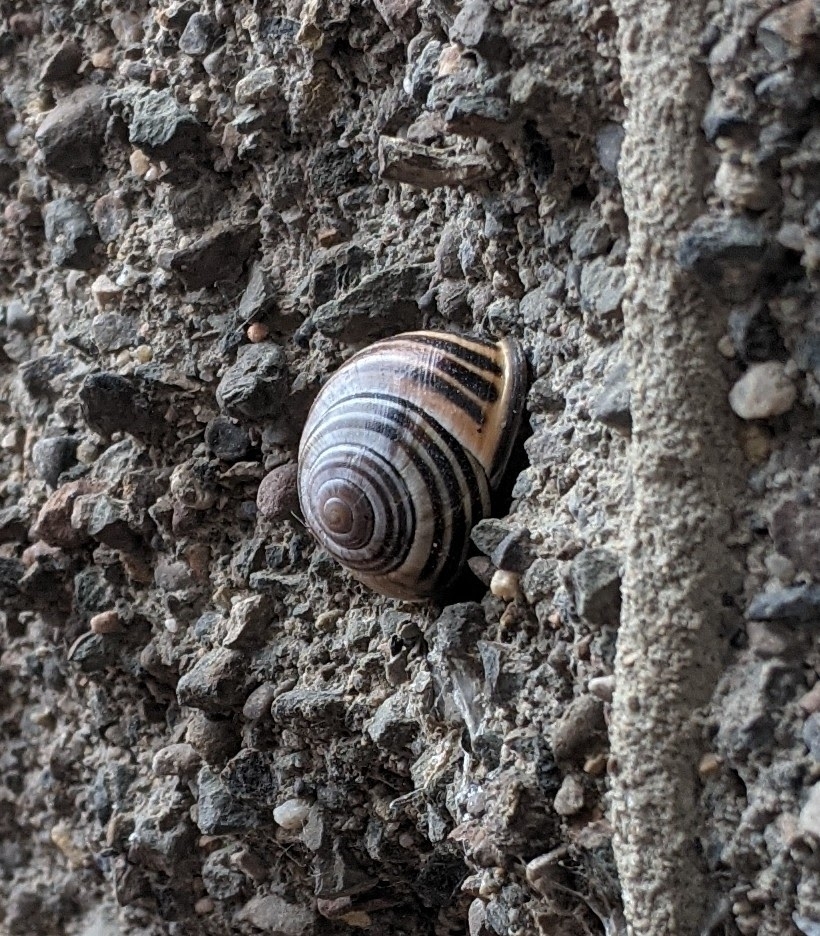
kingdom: Animalia
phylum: Mollusca
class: Gastropoda
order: Stylommatophora
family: Helicidae
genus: Cepaea
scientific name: Cepaea nemoralis
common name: Grovesnail
